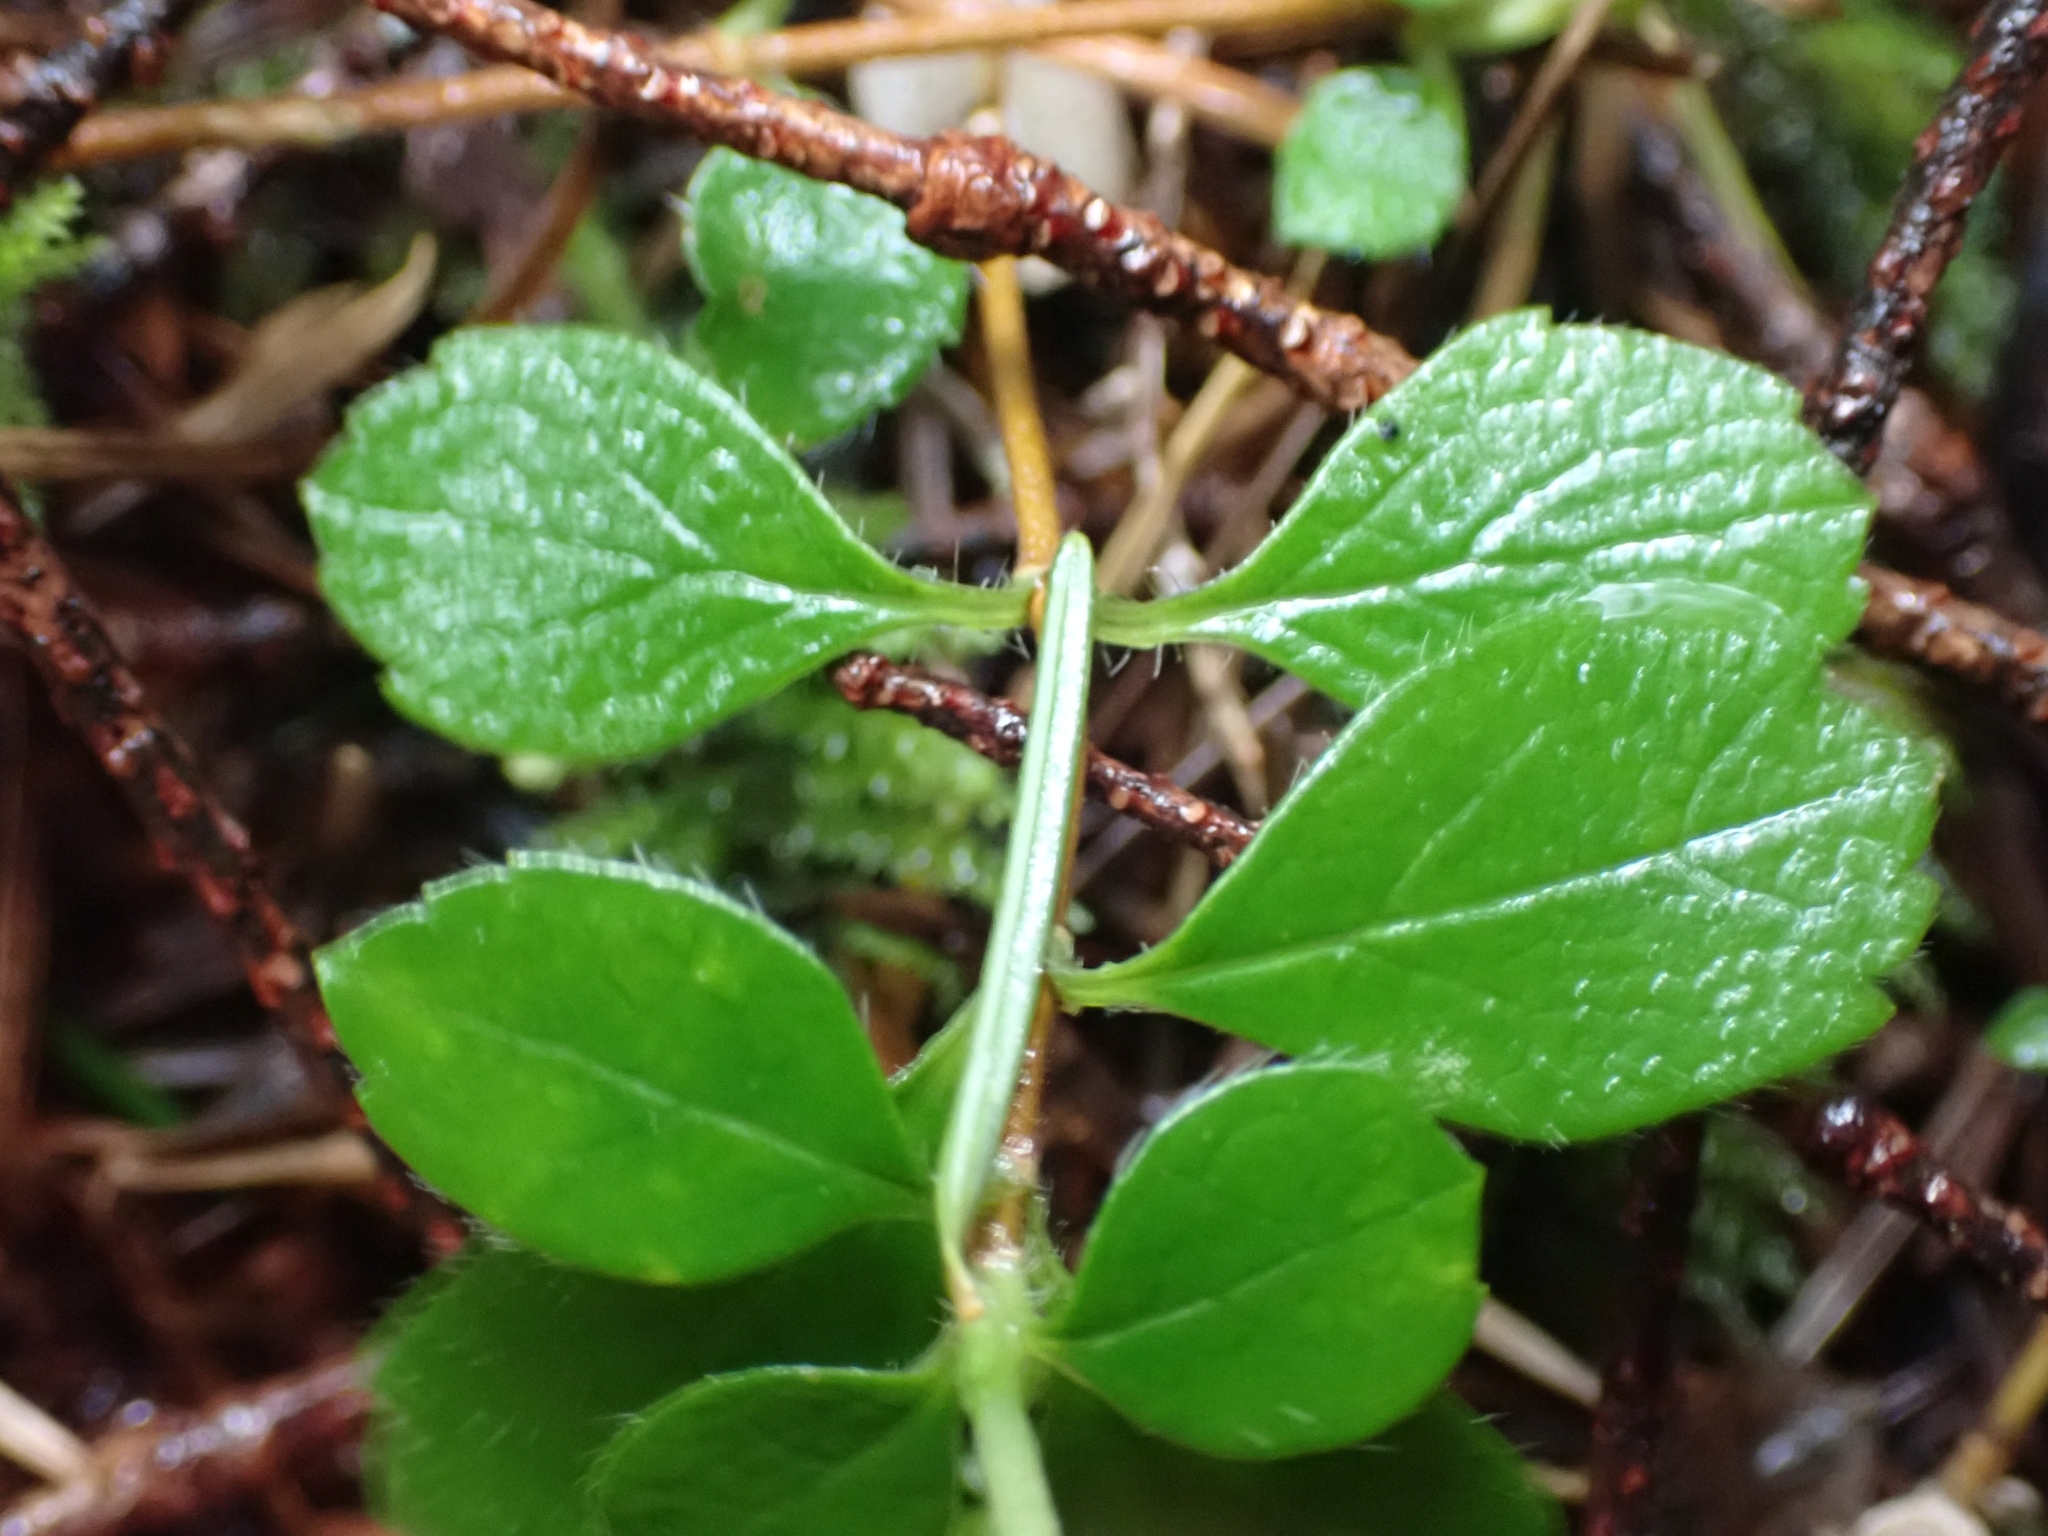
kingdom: Plantae
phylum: Tracheophyta
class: Magnoliopsida
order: Dipsacales
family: Caprifoliaceae
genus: Linnaea
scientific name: Linnaea borealis
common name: Twinflower
